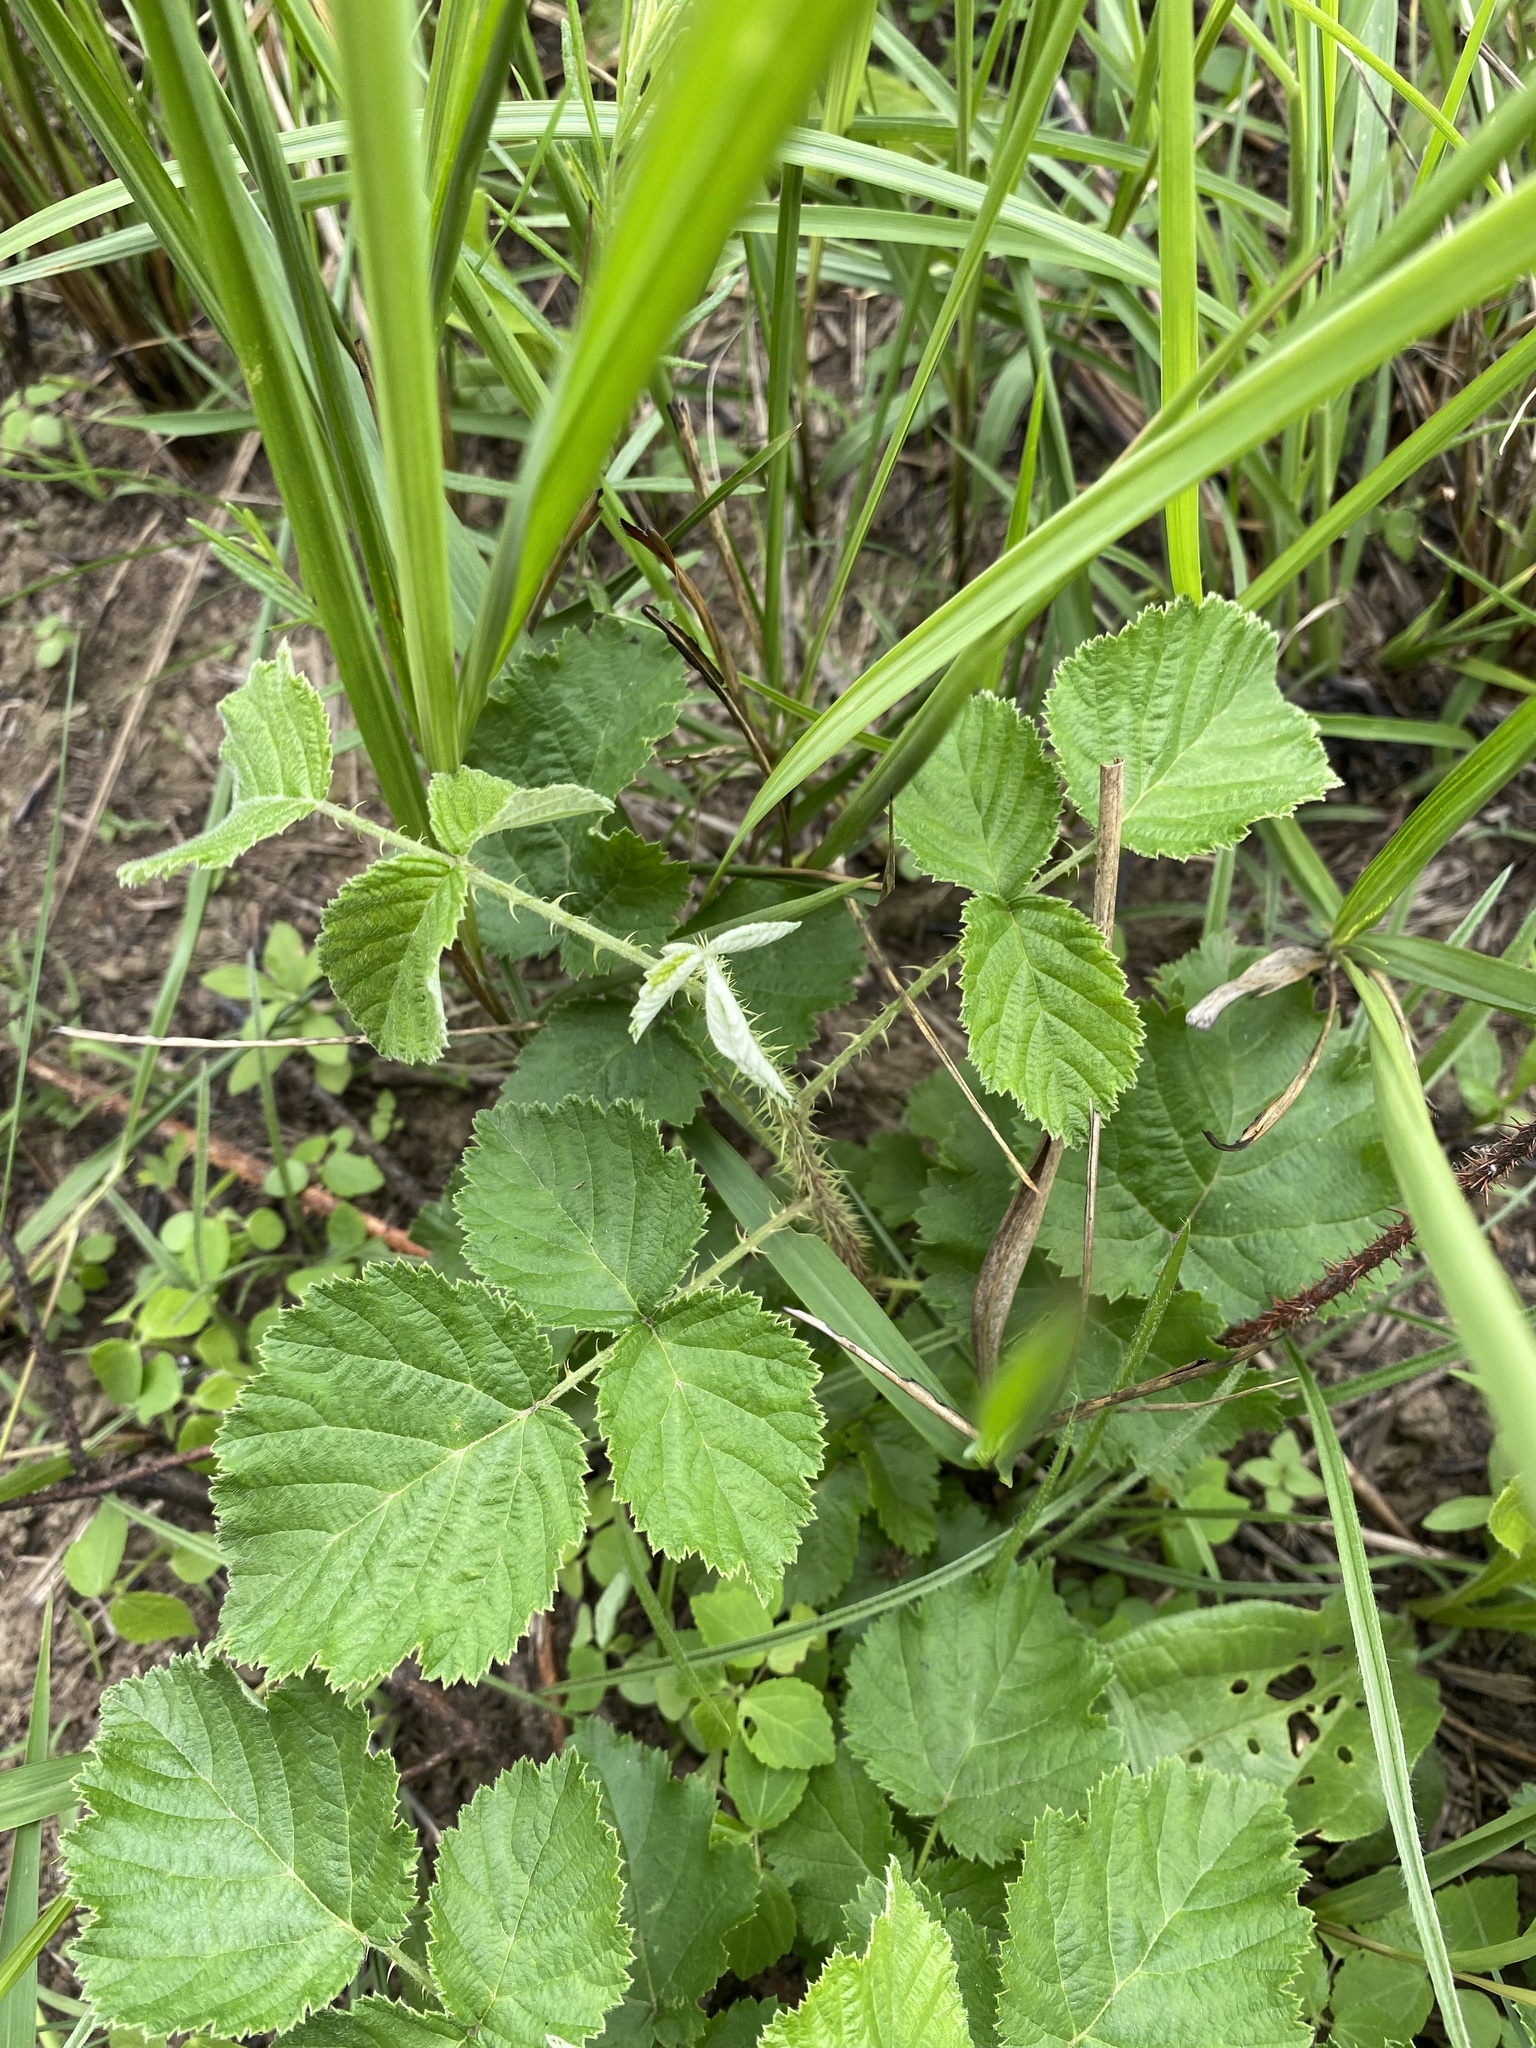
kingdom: Plantae
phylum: Tracheophyta
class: Magnoliopsida
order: Rosales
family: Rosaceae
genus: Rubus
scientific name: Rubus rigidus
